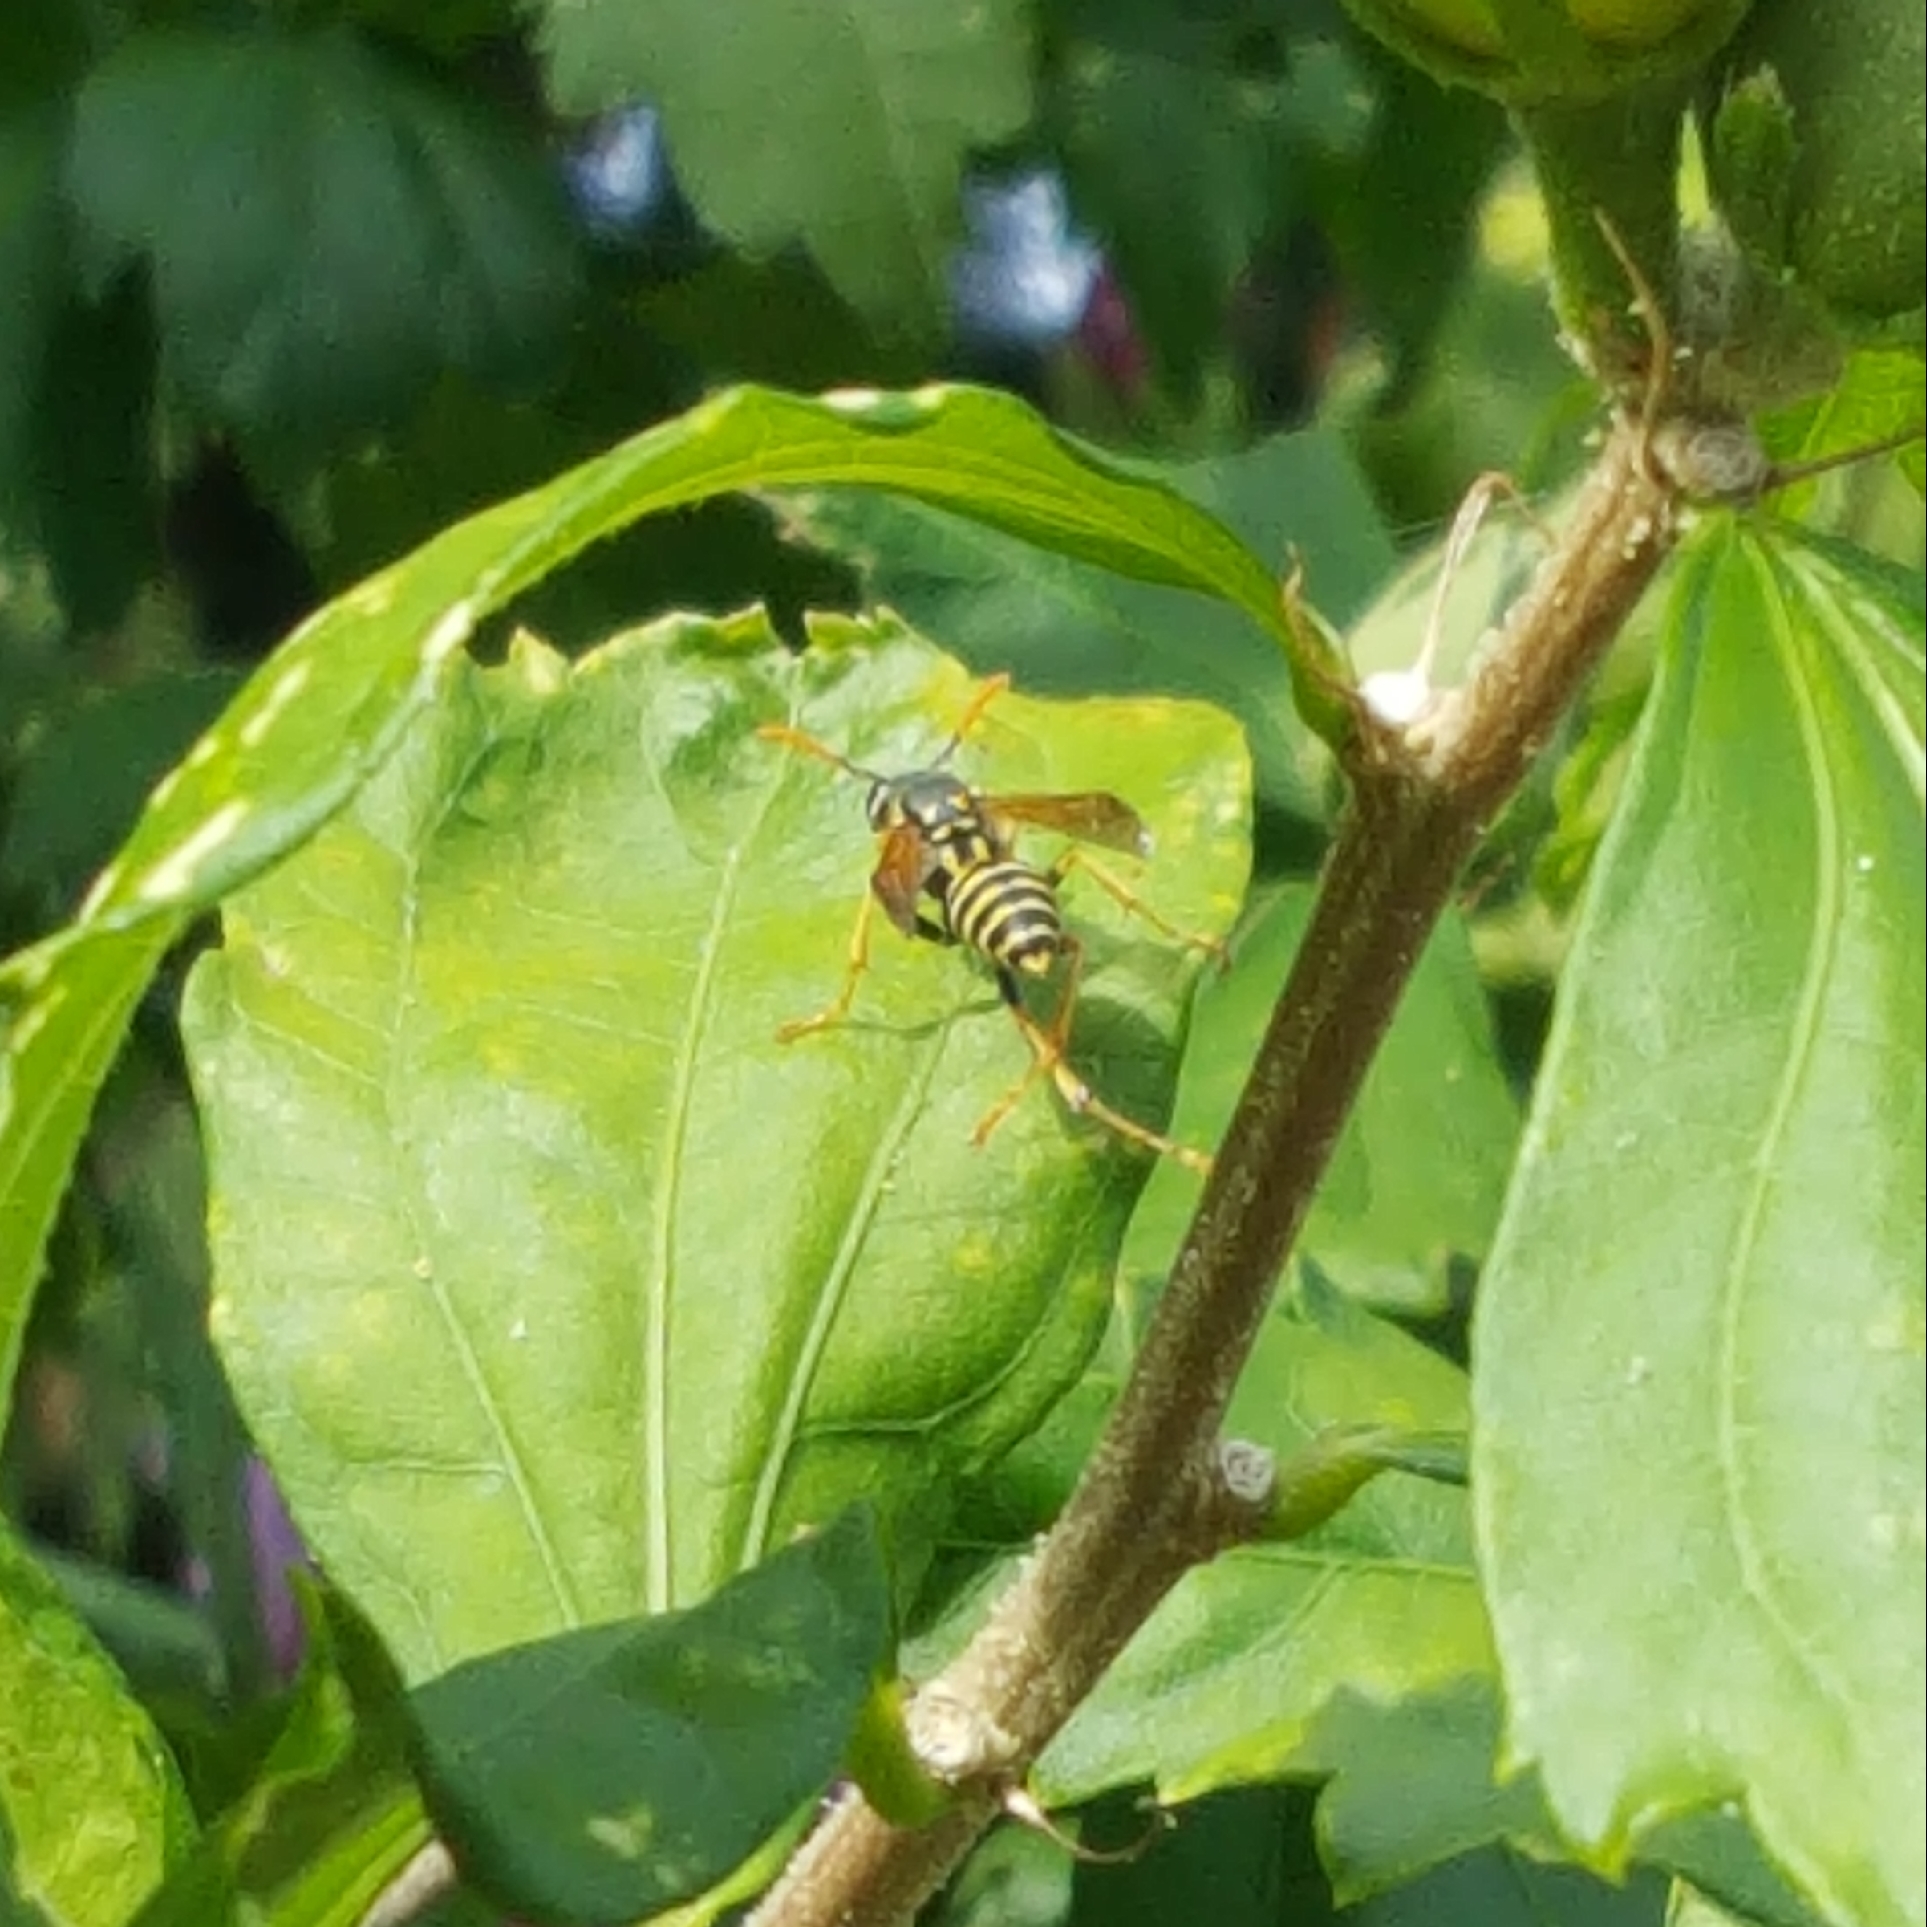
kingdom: Animalia
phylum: Arthropoda
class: Insecta
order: Hymenoptera
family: Eumenidae
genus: Polistes
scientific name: Polistes dominula
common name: Paper wasp
